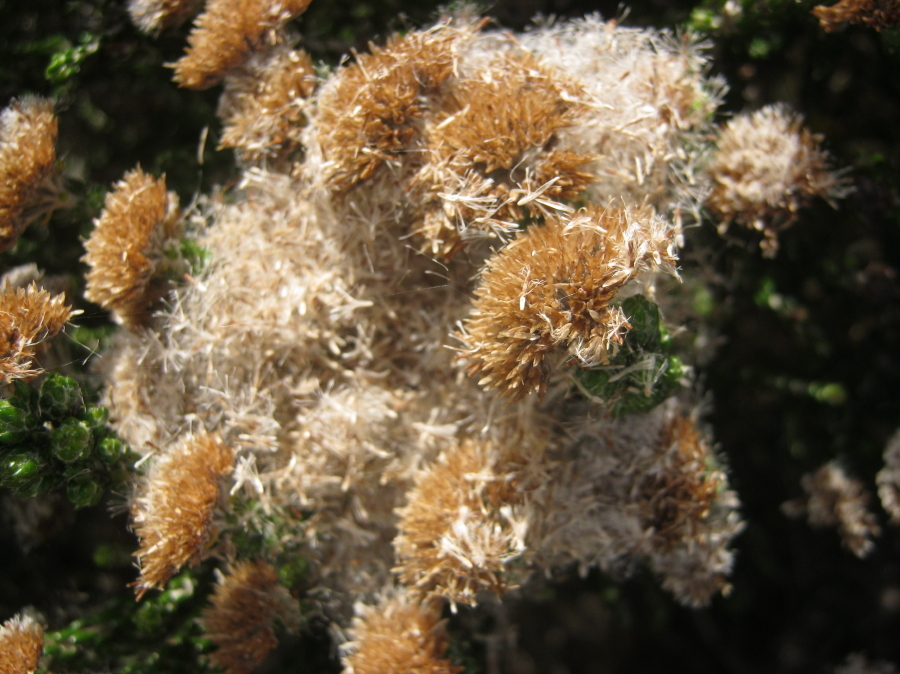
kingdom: Plantae
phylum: Tracheophyta
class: Magnoliopsida
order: Asterales
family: Asteraceae
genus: Metalasia
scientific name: Metalasia pungens
